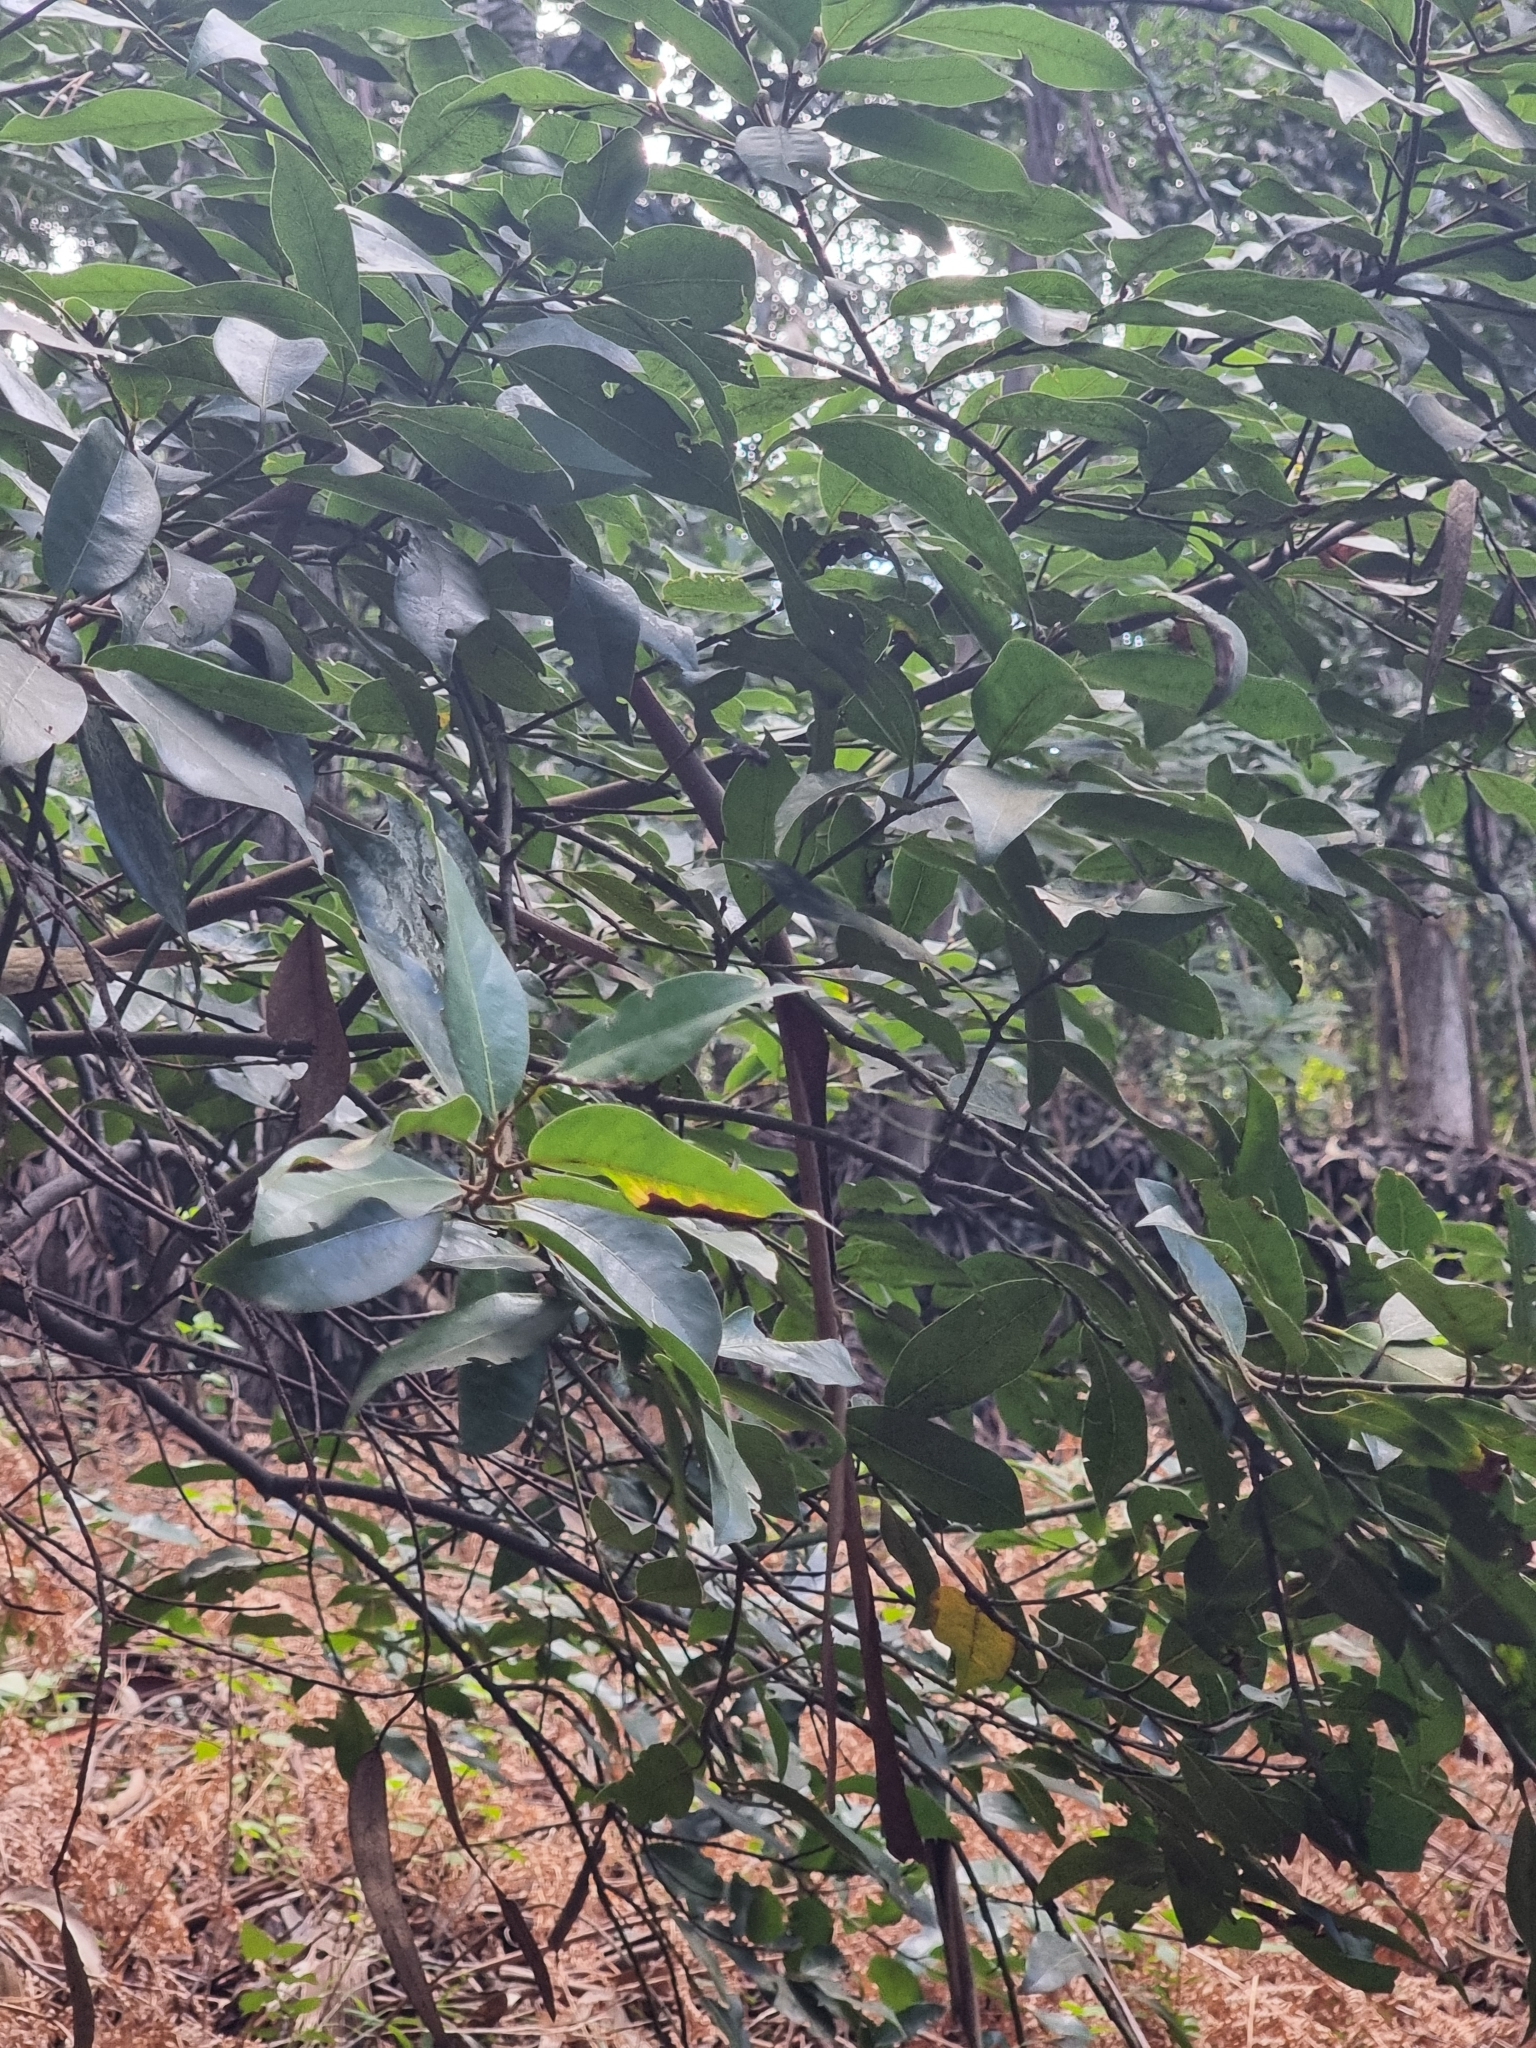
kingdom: Plantae
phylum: Tracheophyta
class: Magnoliopsida
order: Laurales
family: Lauraceae
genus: Laurus
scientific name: Laurus novocanariensis
